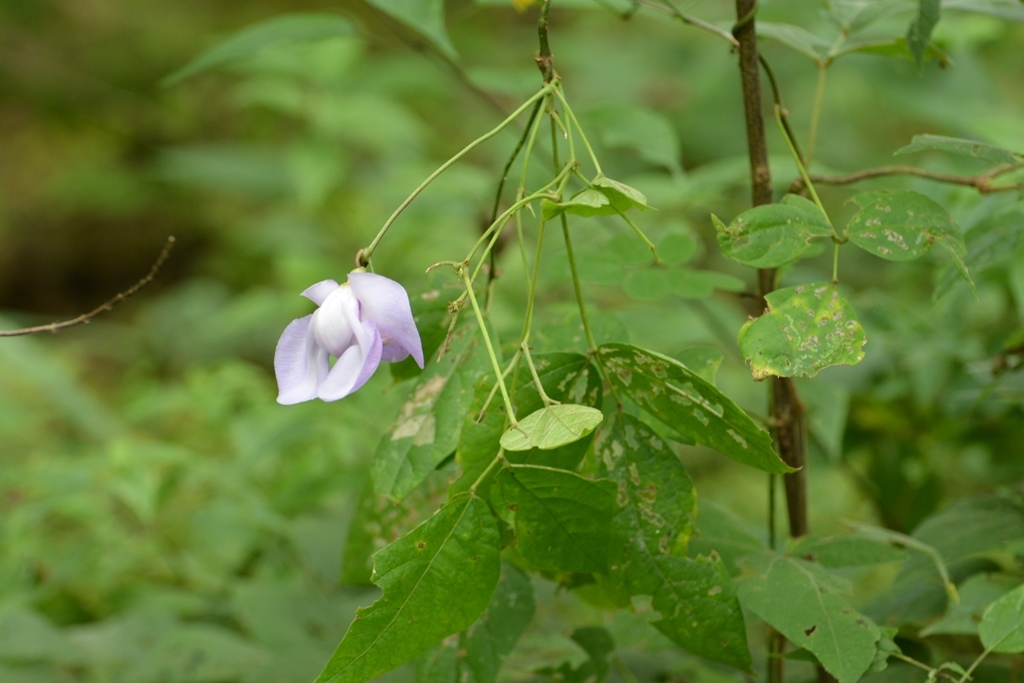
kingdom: Plantae
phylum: Tracheophyta
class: Magnoliopsida
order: Fabales
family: Fabaceae
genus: Vigna
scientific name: Vigna vexillata
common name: Zombi pea
